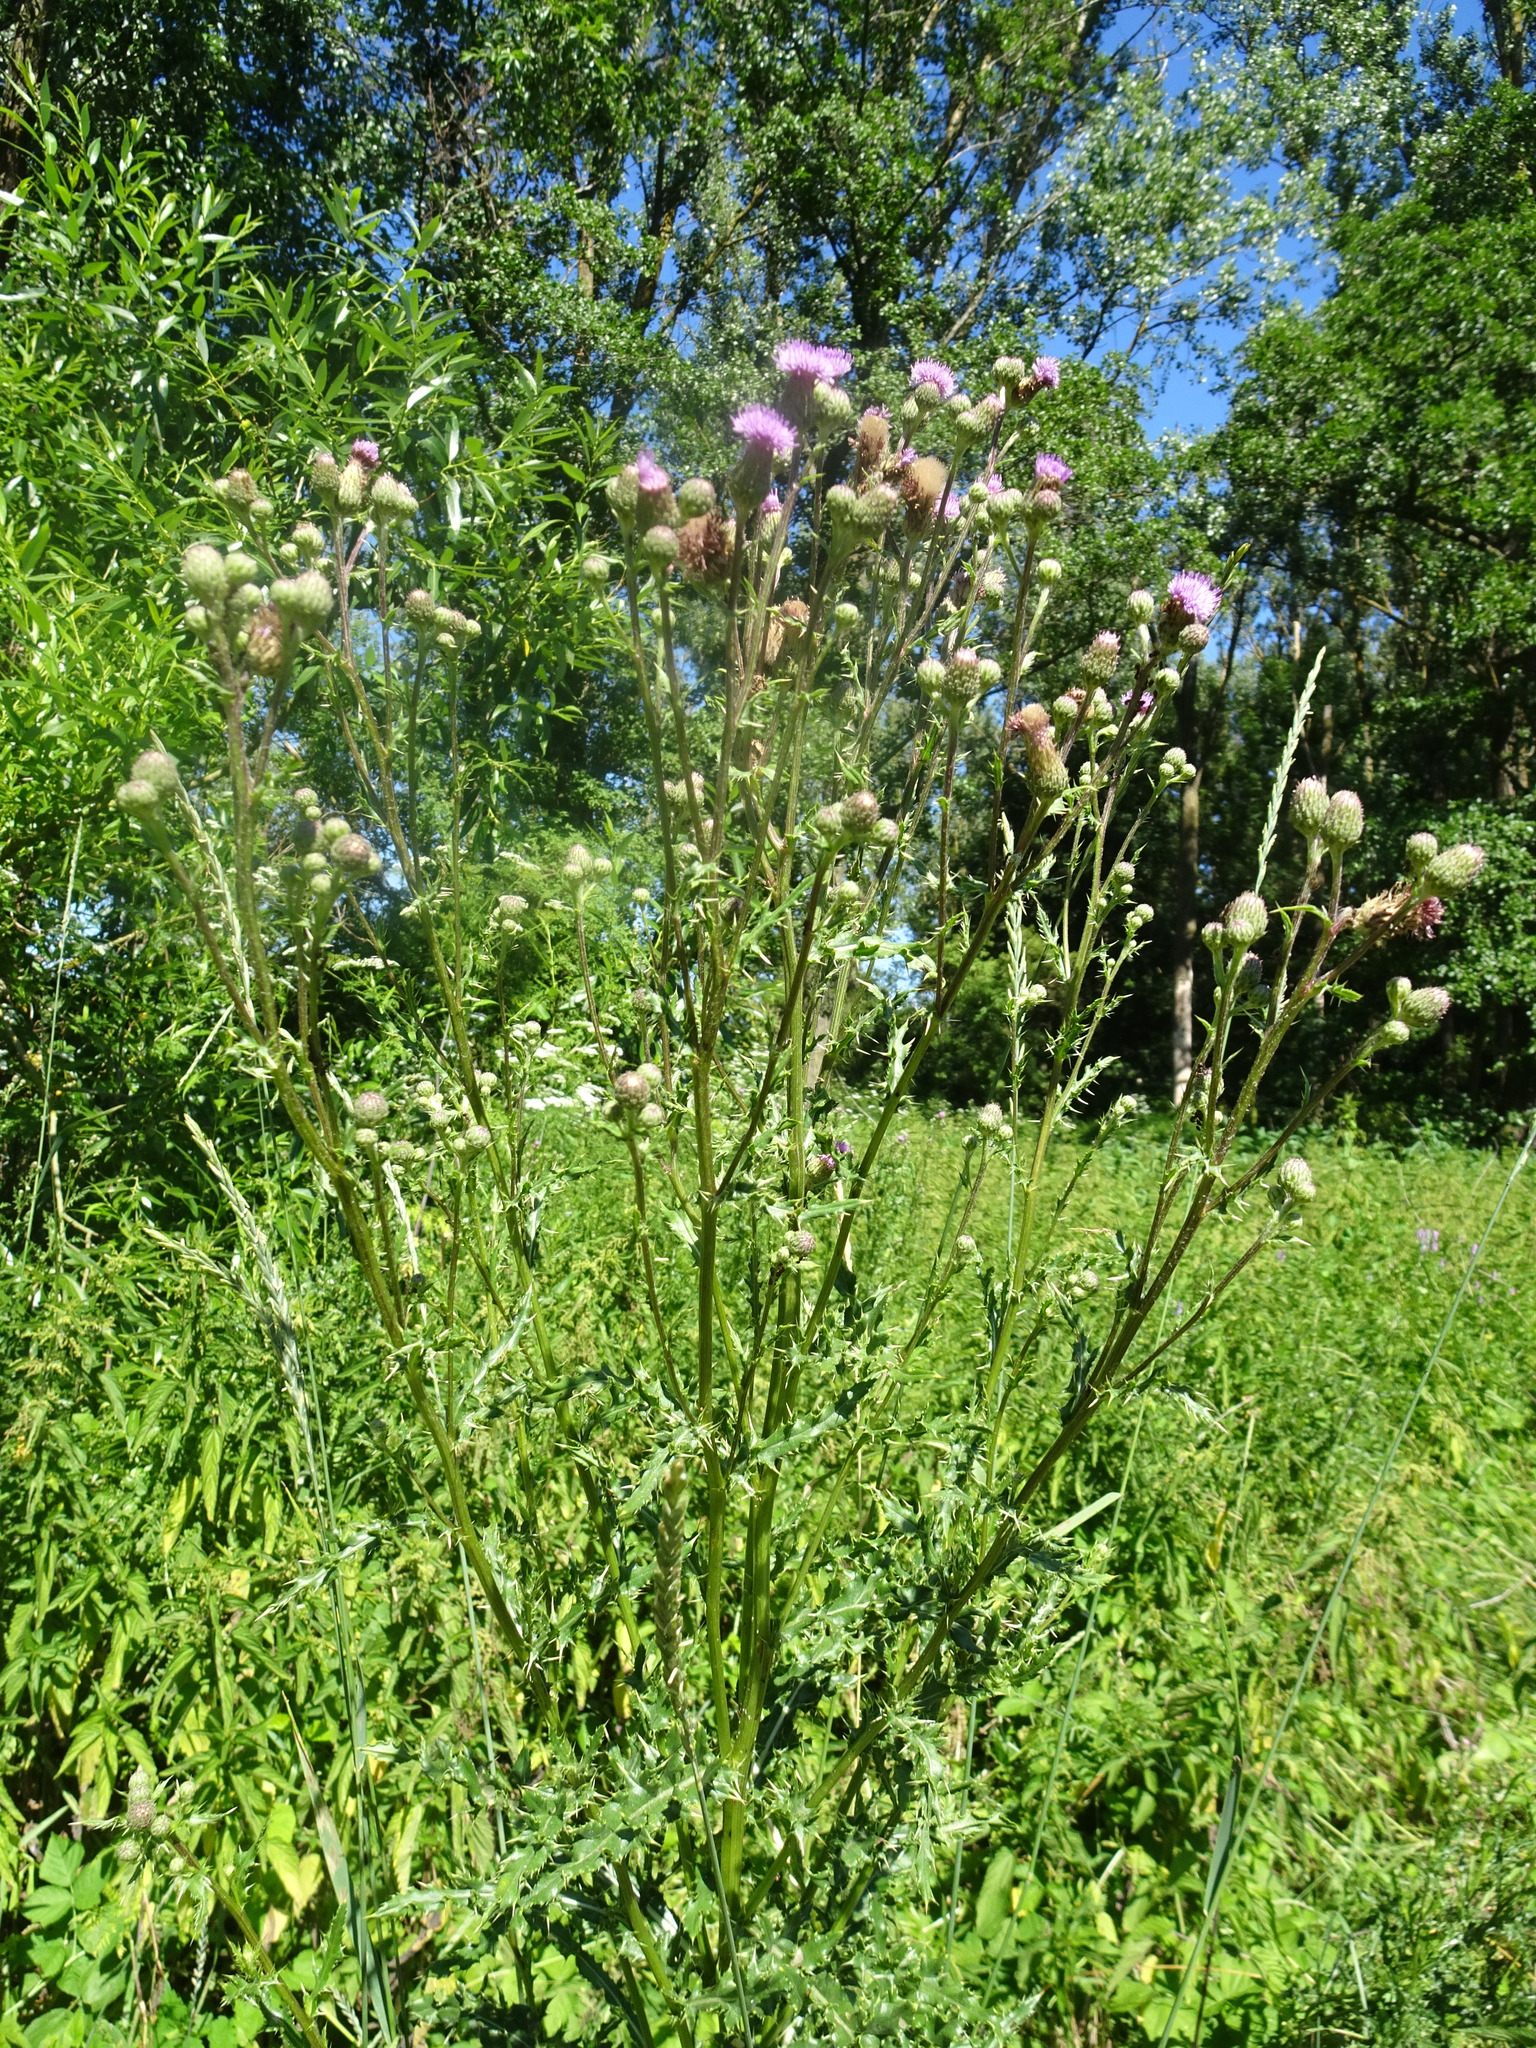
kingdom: Plantae
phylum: Tracheophyta
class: Magnoliopsida
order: Asterales
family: Asteraceae
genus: Cirsium
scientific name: Cirsium arvense
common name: Creeping thistle
